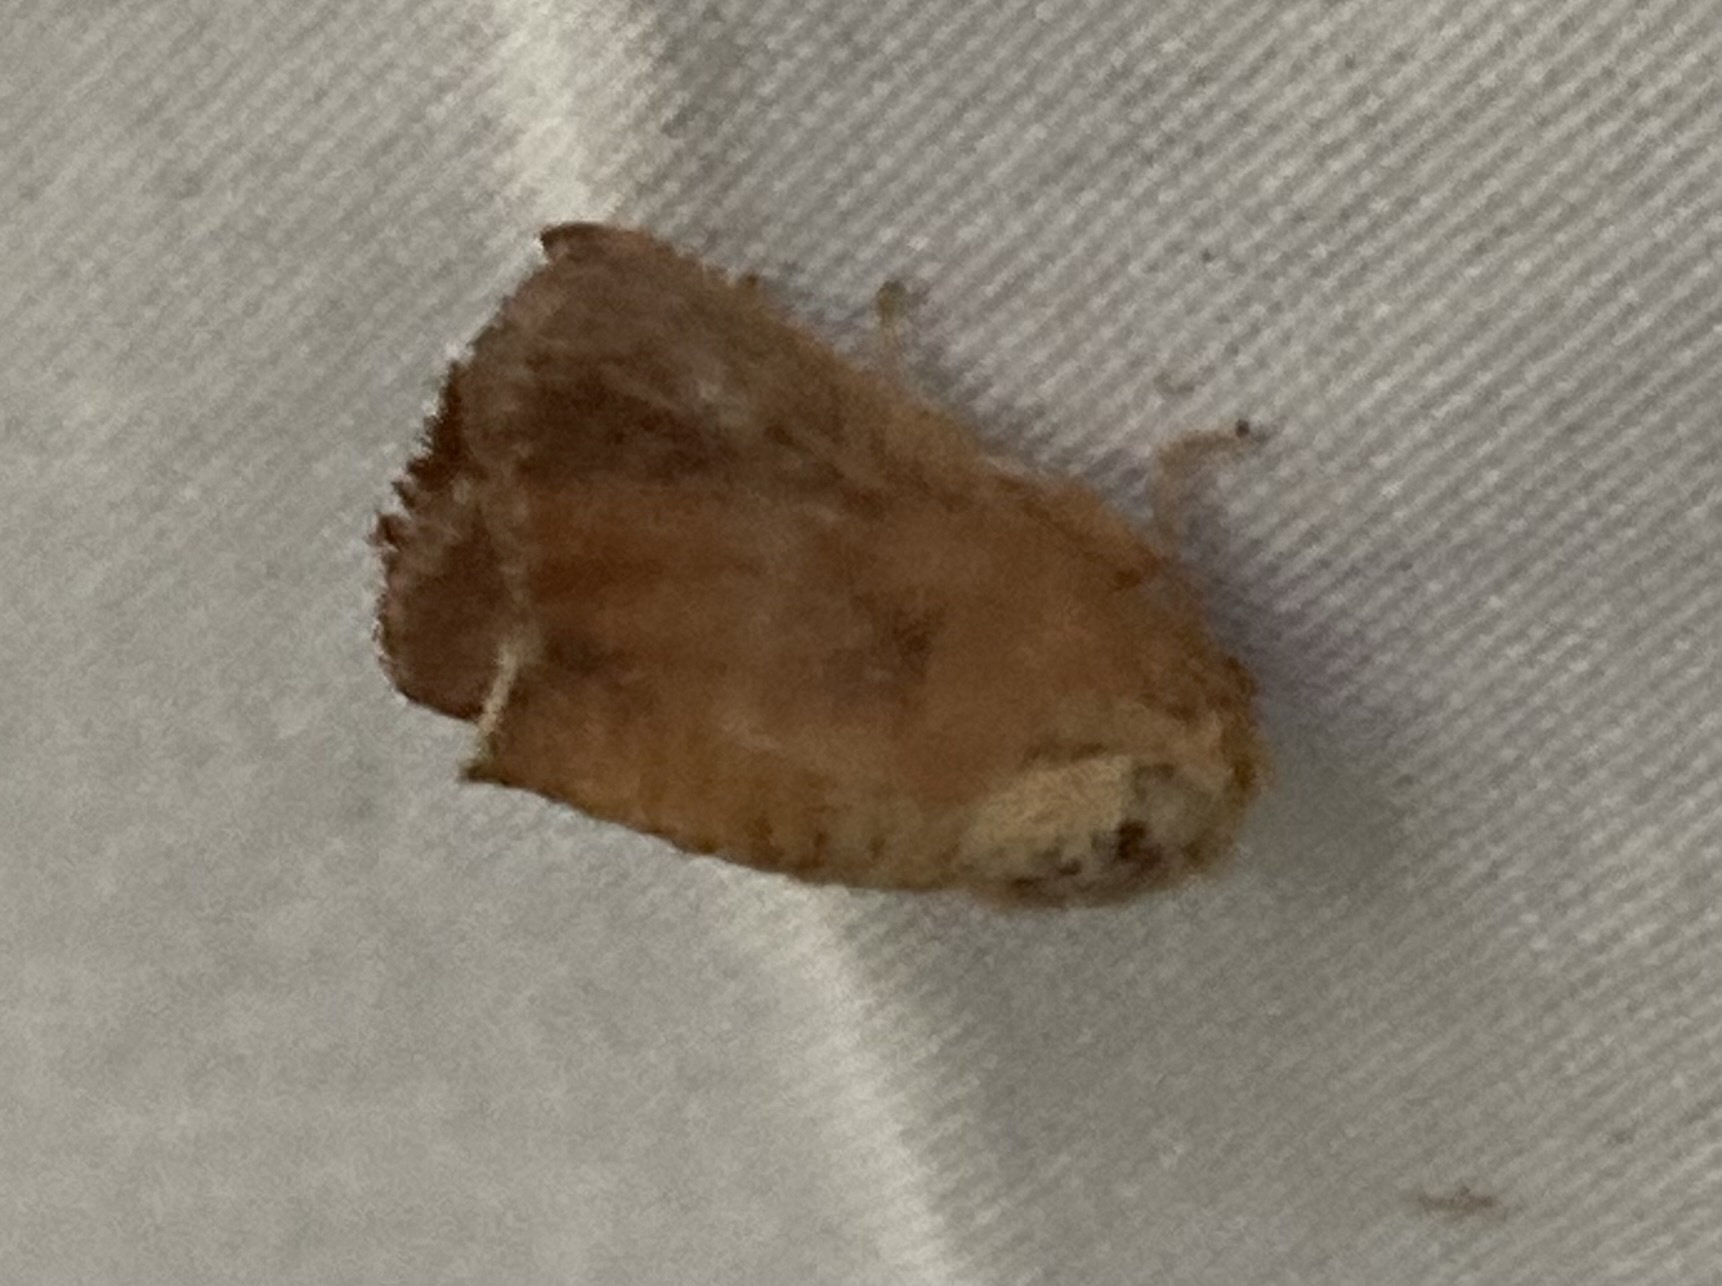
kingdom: Animalia
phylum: Arthropoda
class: Insecta
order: Lepidoptera
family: Limacodidae
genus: Isa
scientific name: Isa textula
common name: Crowned slug moth
